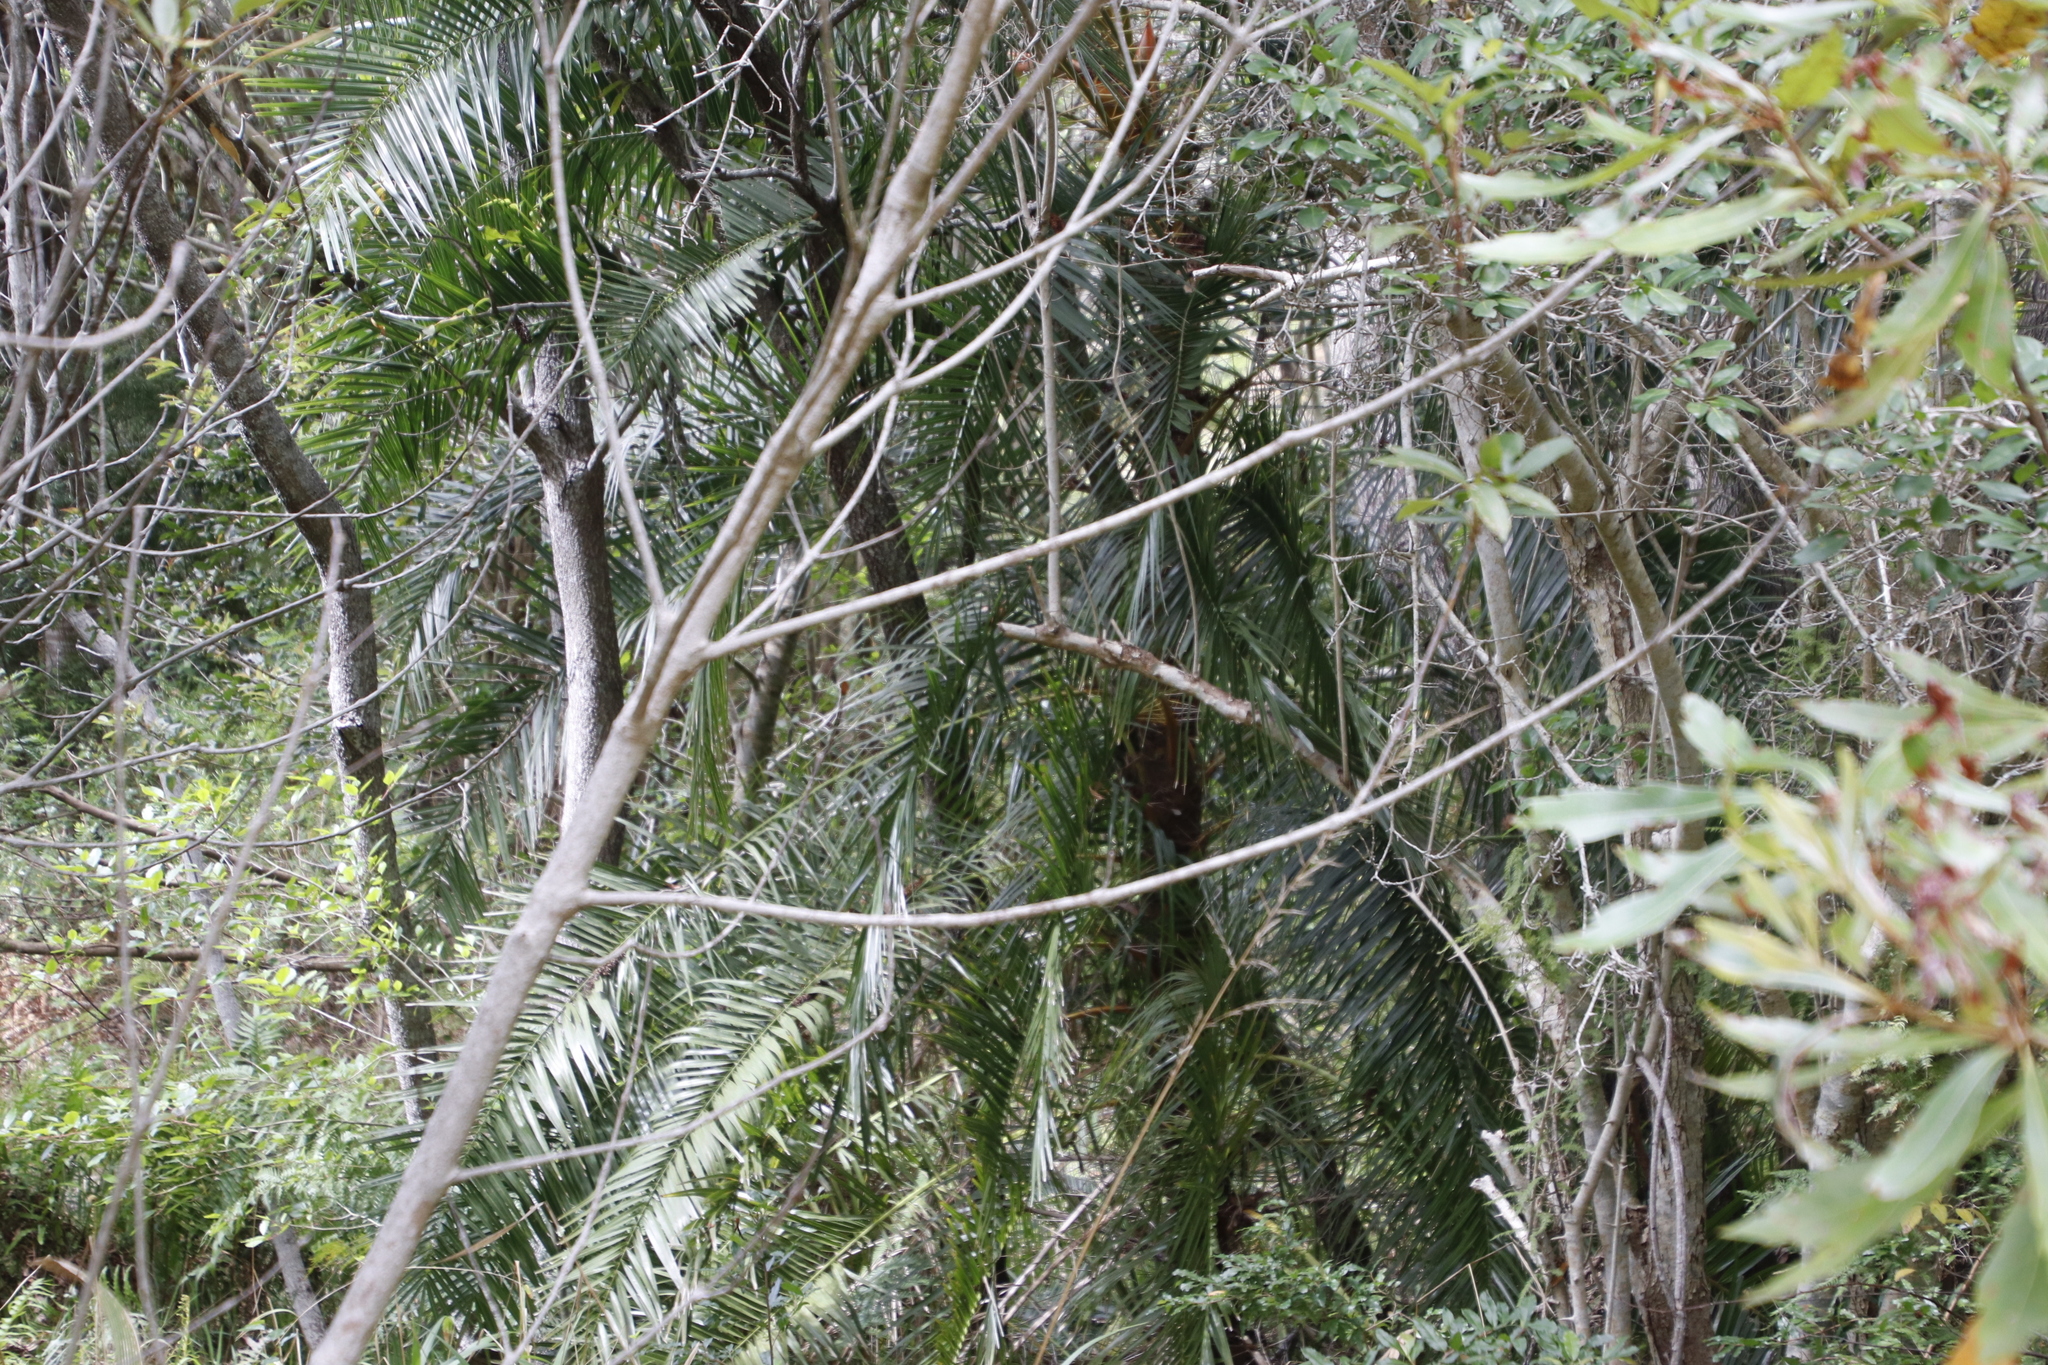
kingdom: Plantae
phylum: Tracheophyta
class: Liliopsida
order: Arecales
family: Arecaceae
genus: Phoenix
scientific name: Phoenix reclinata
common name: Senegal date palm
